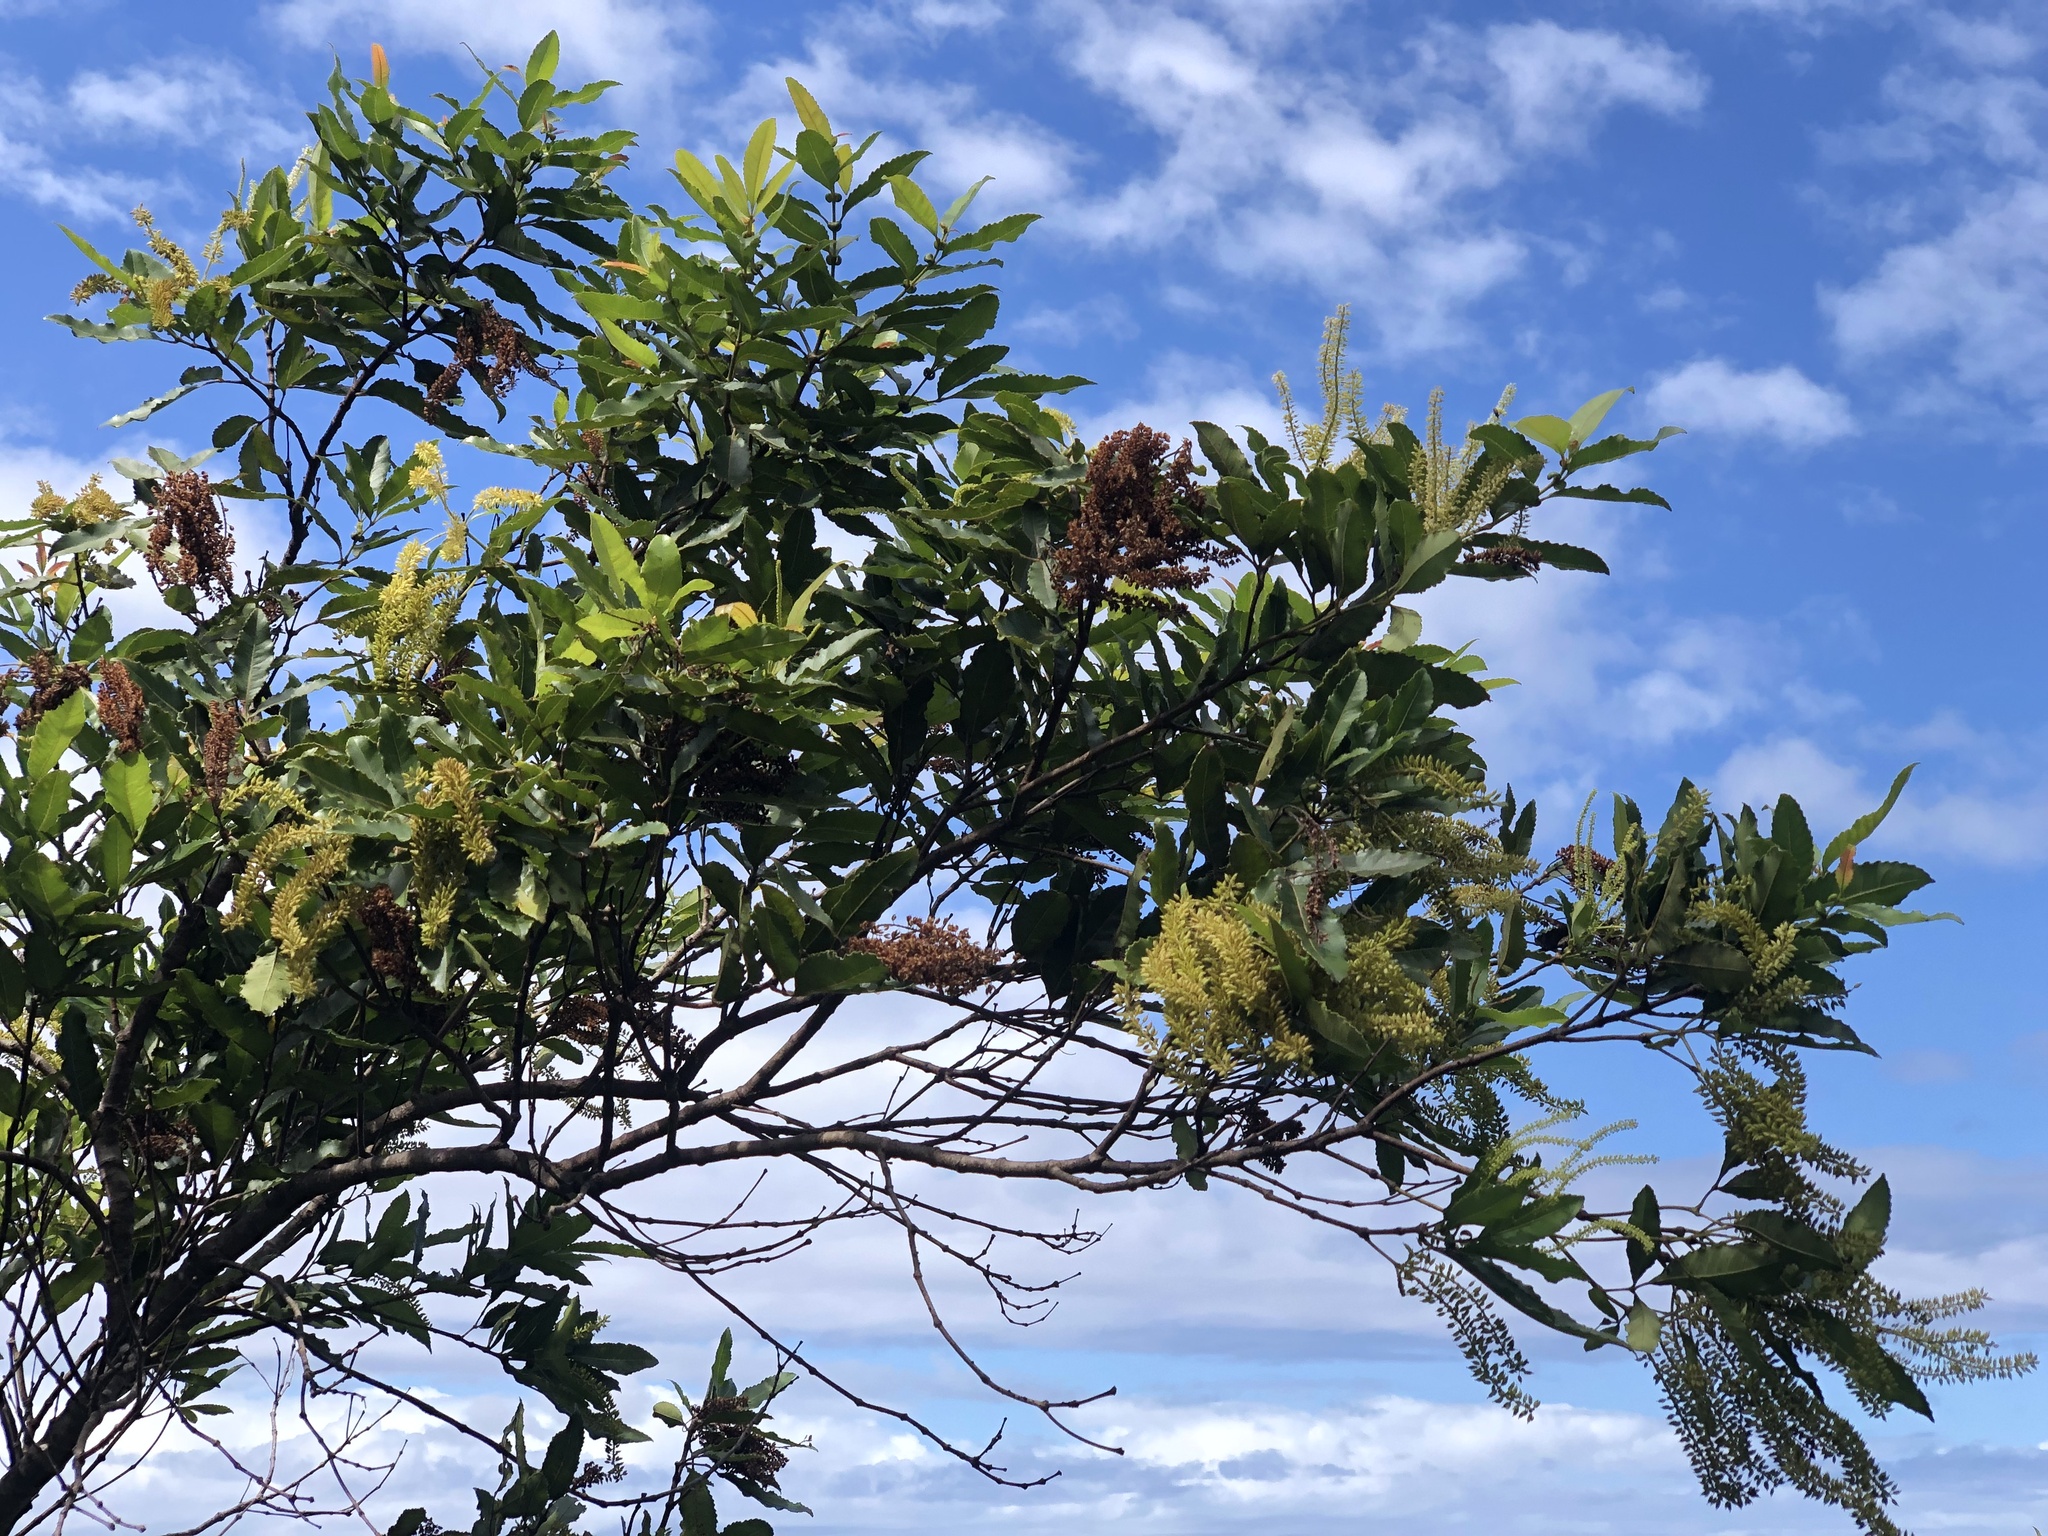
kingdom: Plantae
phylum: Tracheophyta
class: Magnoliopsida
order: Oxalidales
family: Cunoniaceae
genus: Pterophylla
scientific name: Pterophylla samoensis
